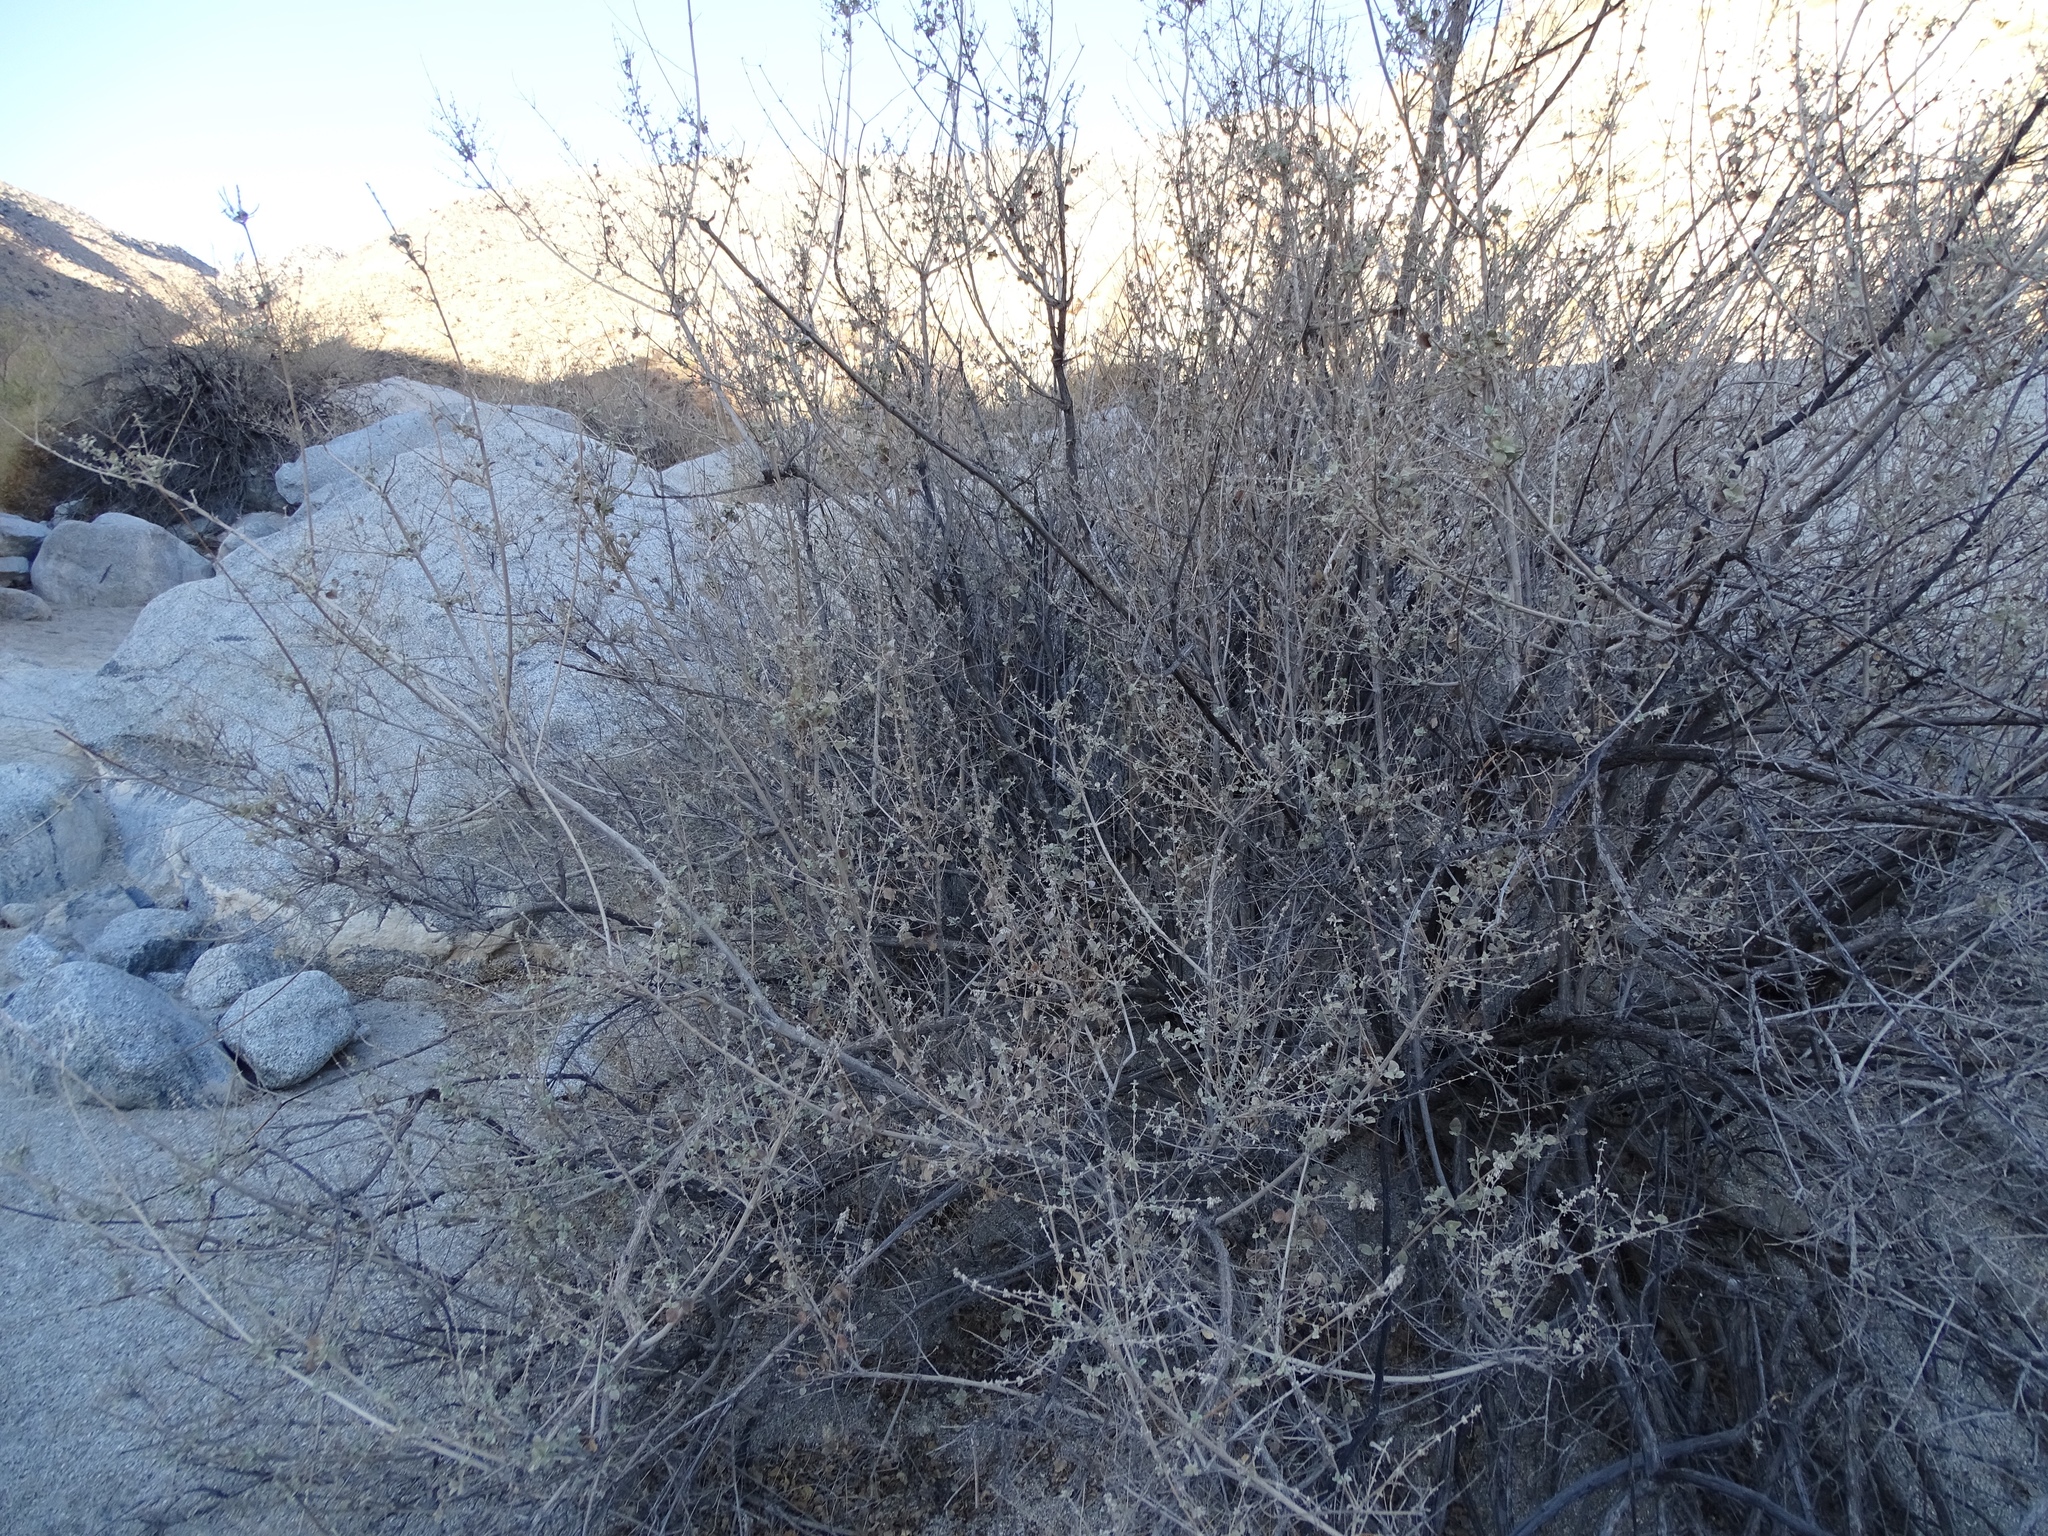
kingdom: Plantae
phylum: Tracheophyta
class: Magnoliopsida
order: Lamiales
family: Lamiaceae
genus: Condea
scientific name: Condea emoryi
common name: Chia
